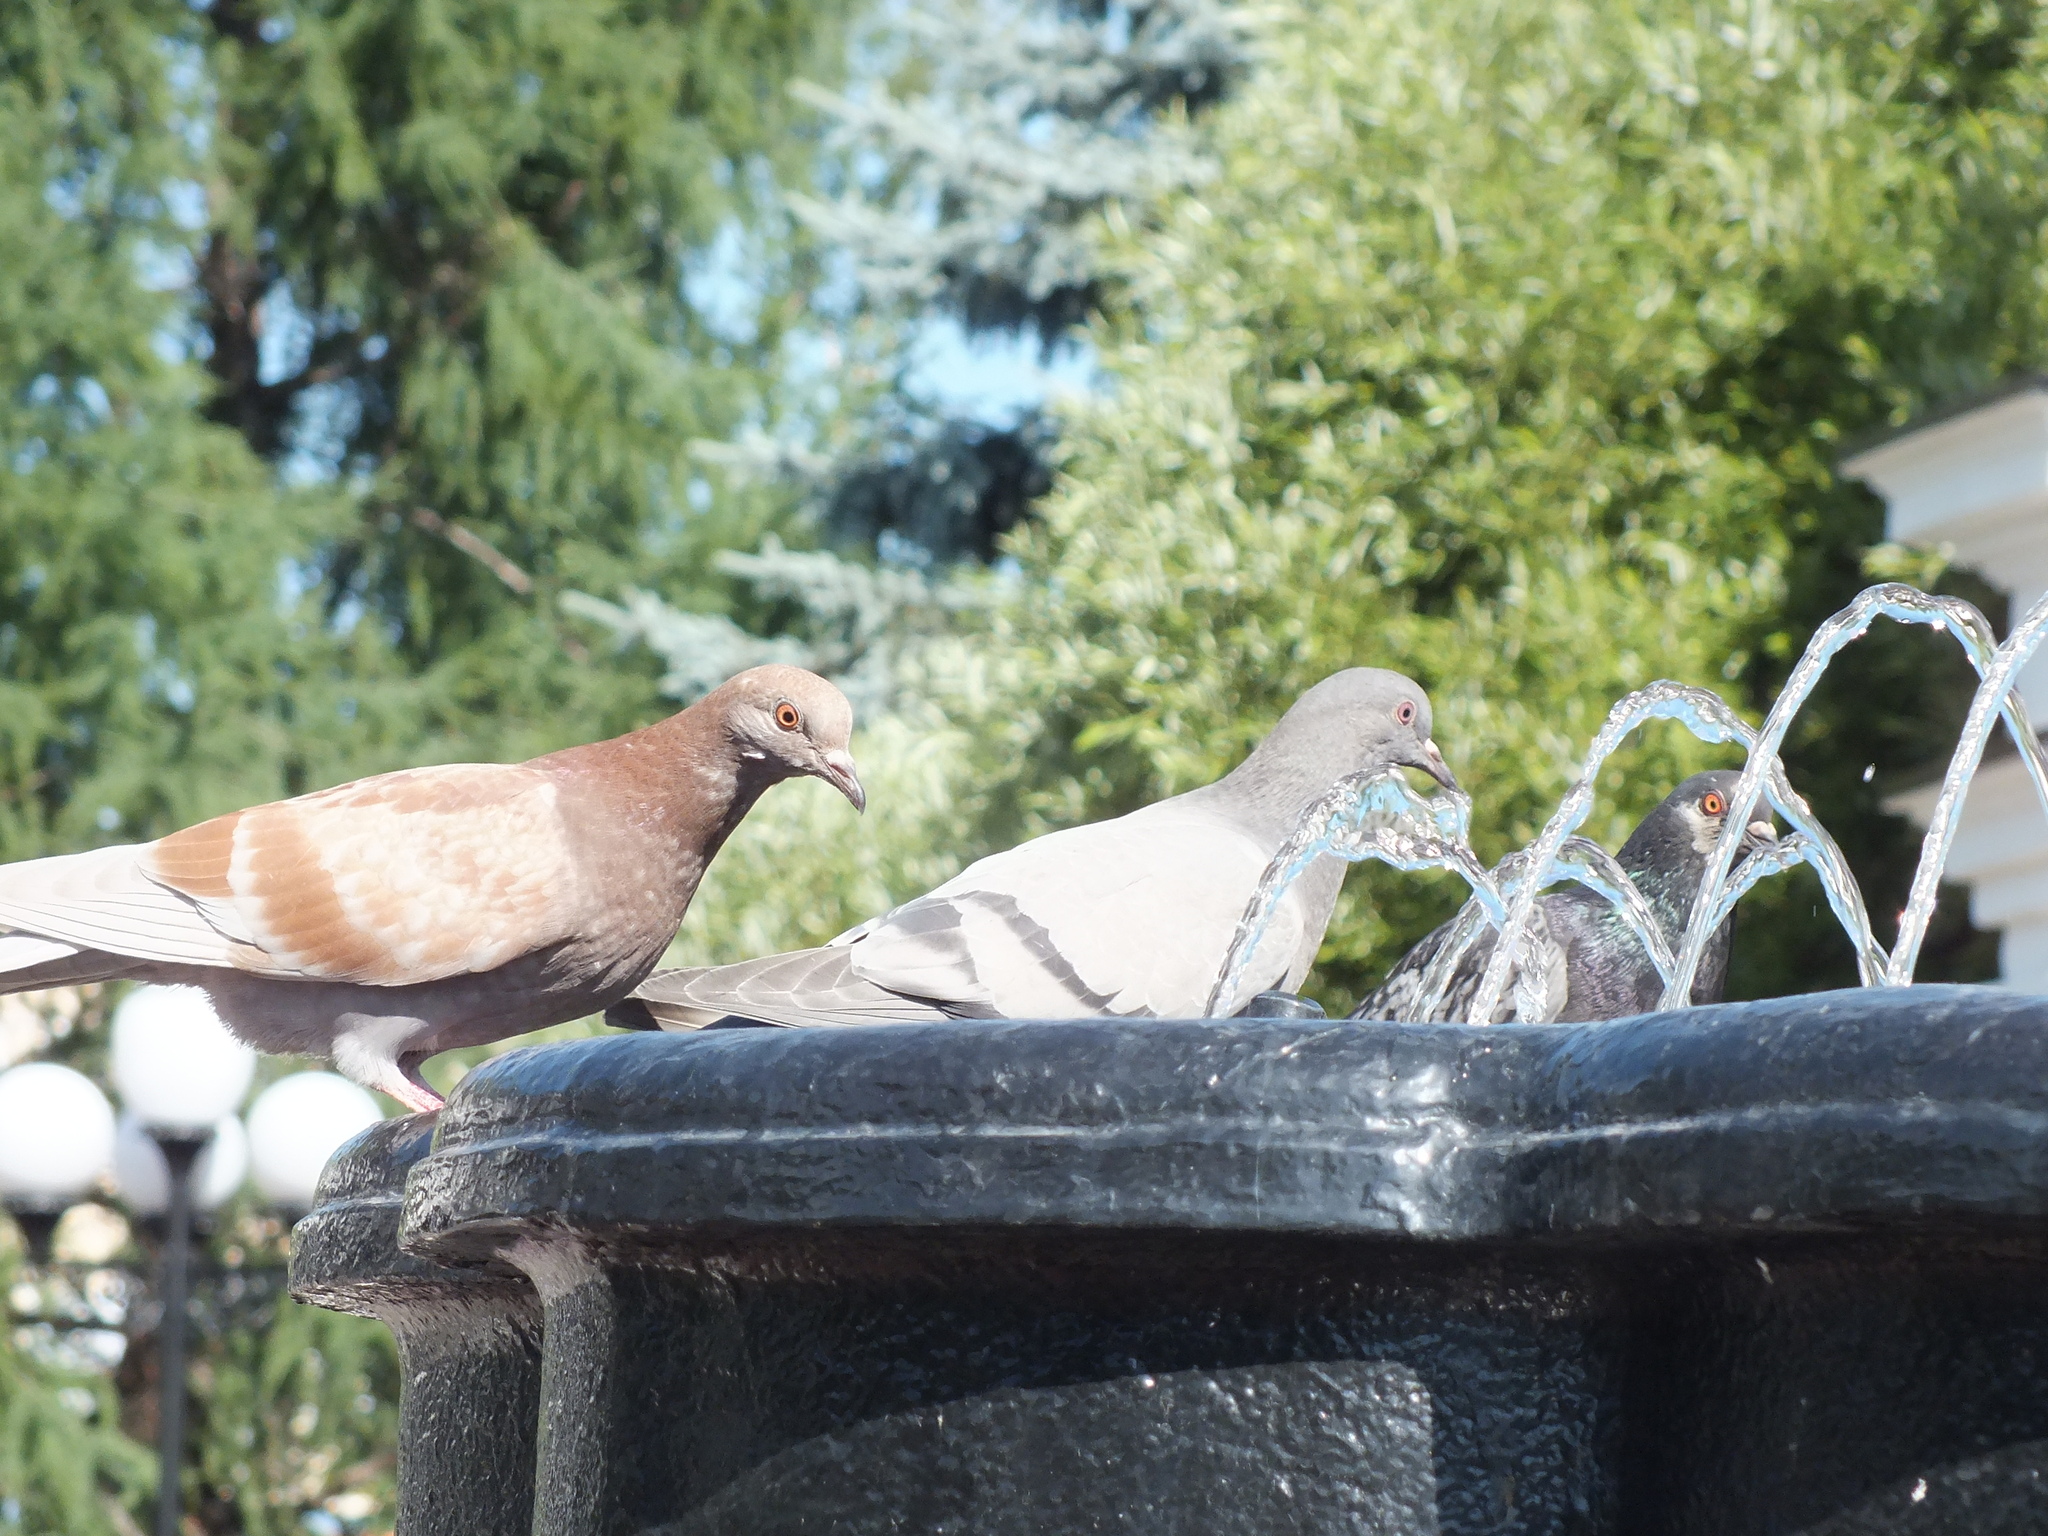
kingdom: Animalia
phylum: Chordata
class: Aves
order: Columbiformes
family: Columbidae
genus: Columba
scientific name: Columba livia
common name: Rock pigeon
